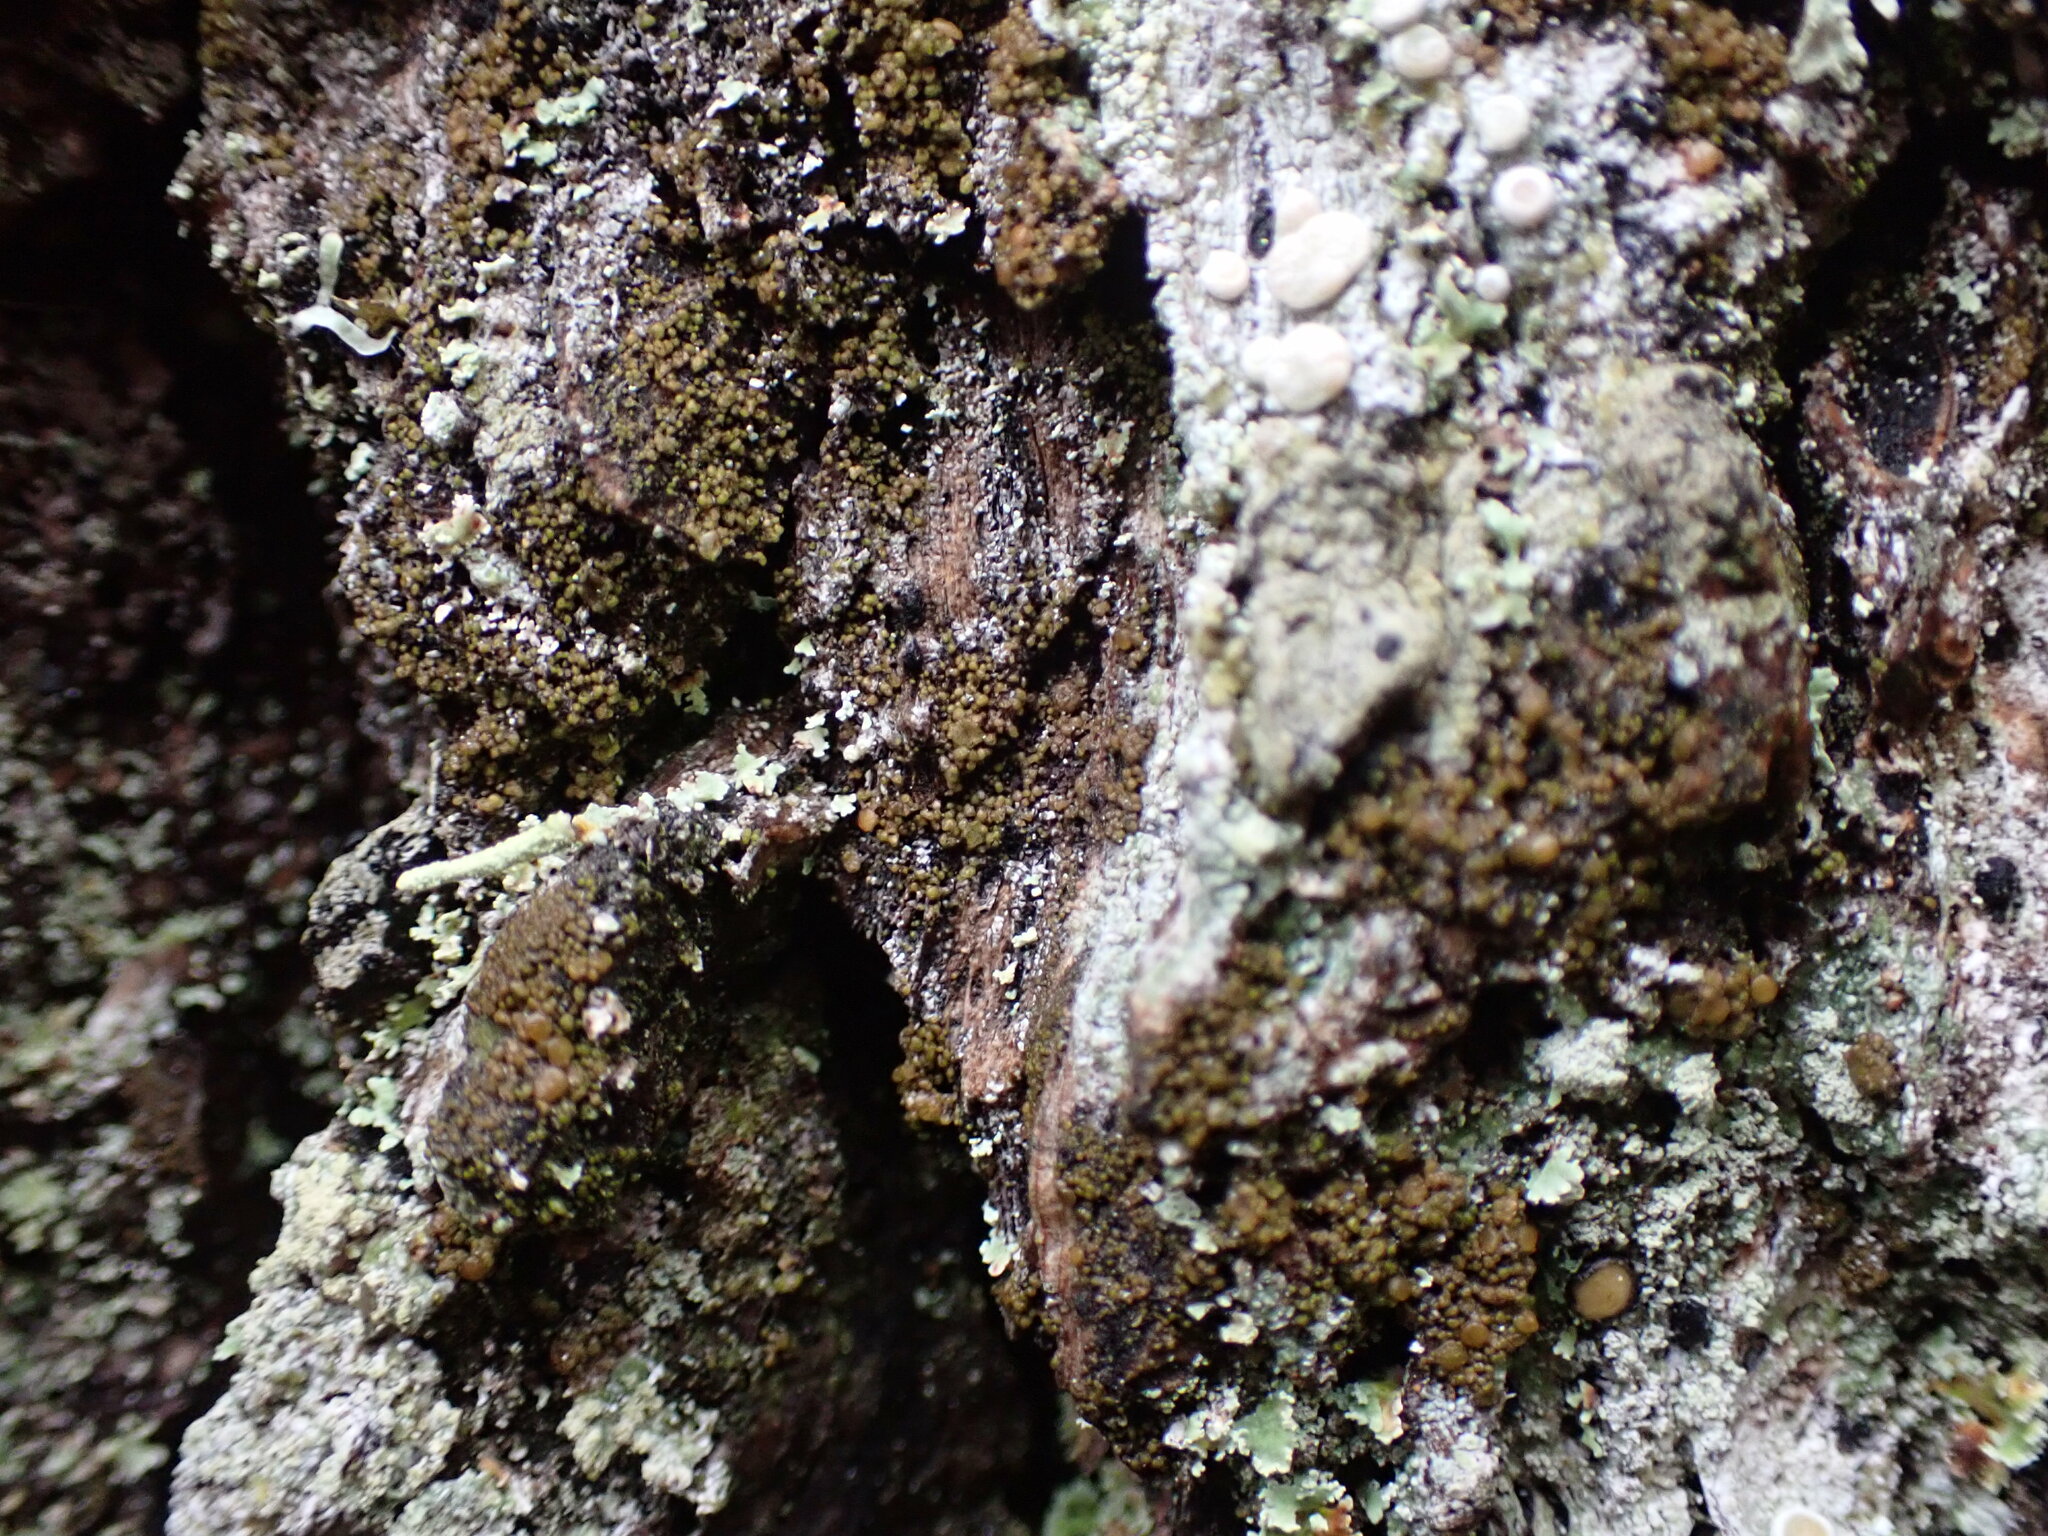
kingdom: Fungi
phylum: Ascomycota
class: Lecanoromycetes
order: Lecanorales
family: Parmeliaceae
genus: Protoparmelia
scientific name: Protoparmelia ochrococca
